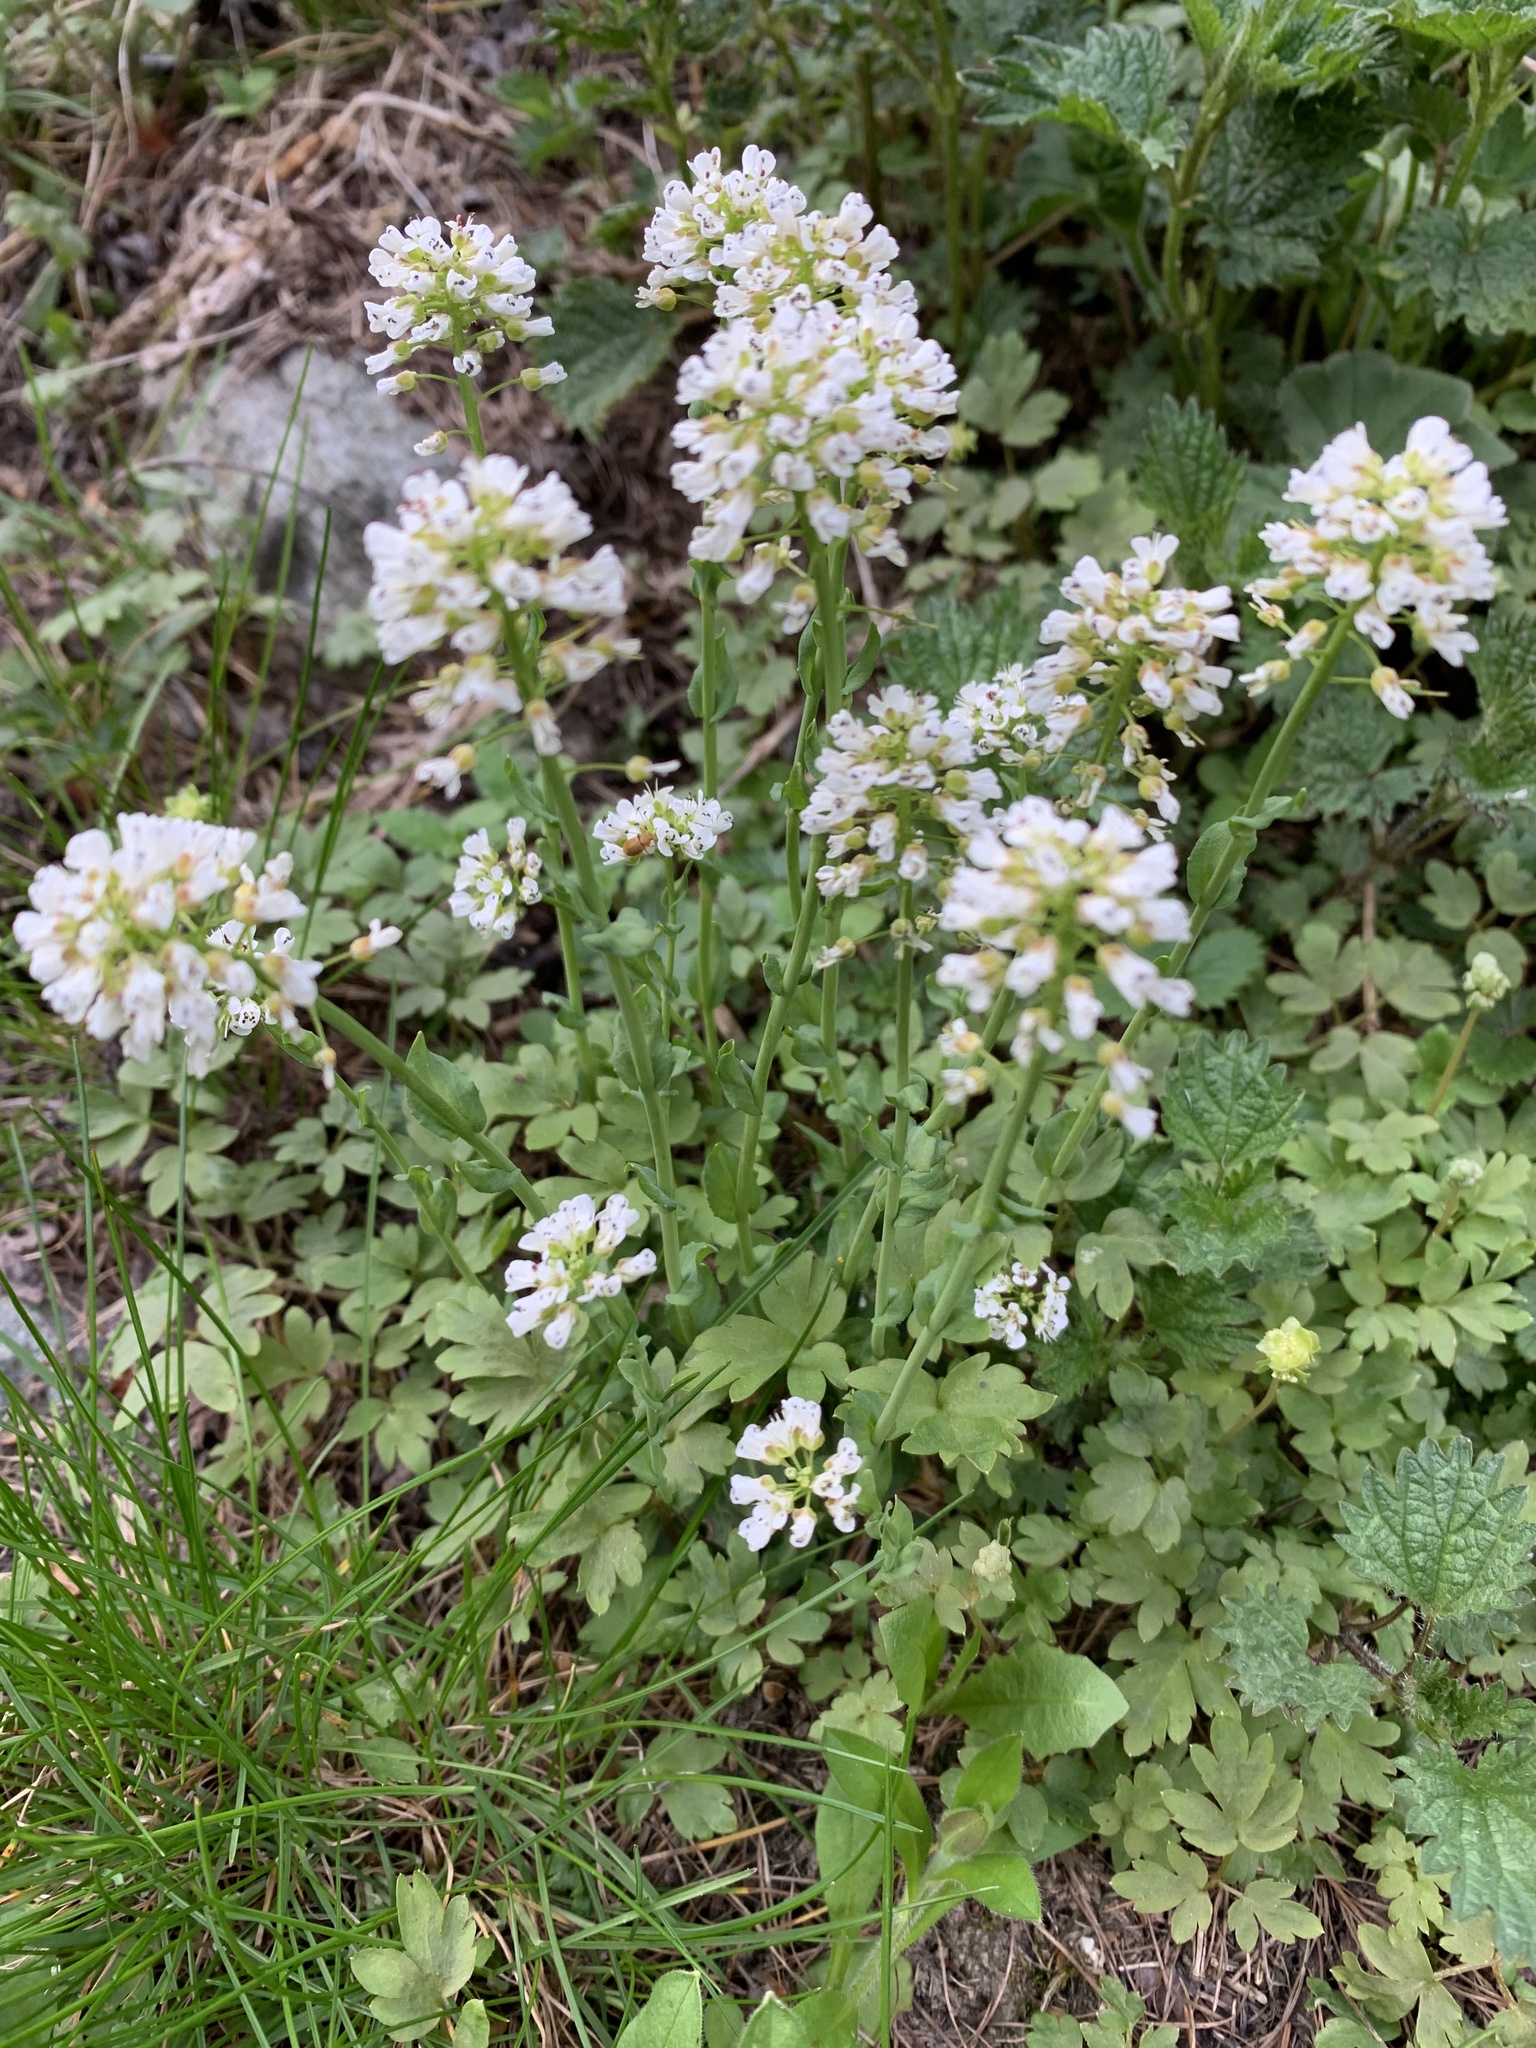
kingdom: Plantae
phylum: Tracheophyta
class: Magnoliopsida
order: Brassicales
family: Brassicaceae
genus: Noccaea
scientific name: Noccaea caerulescens
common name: Alpine pennycress
